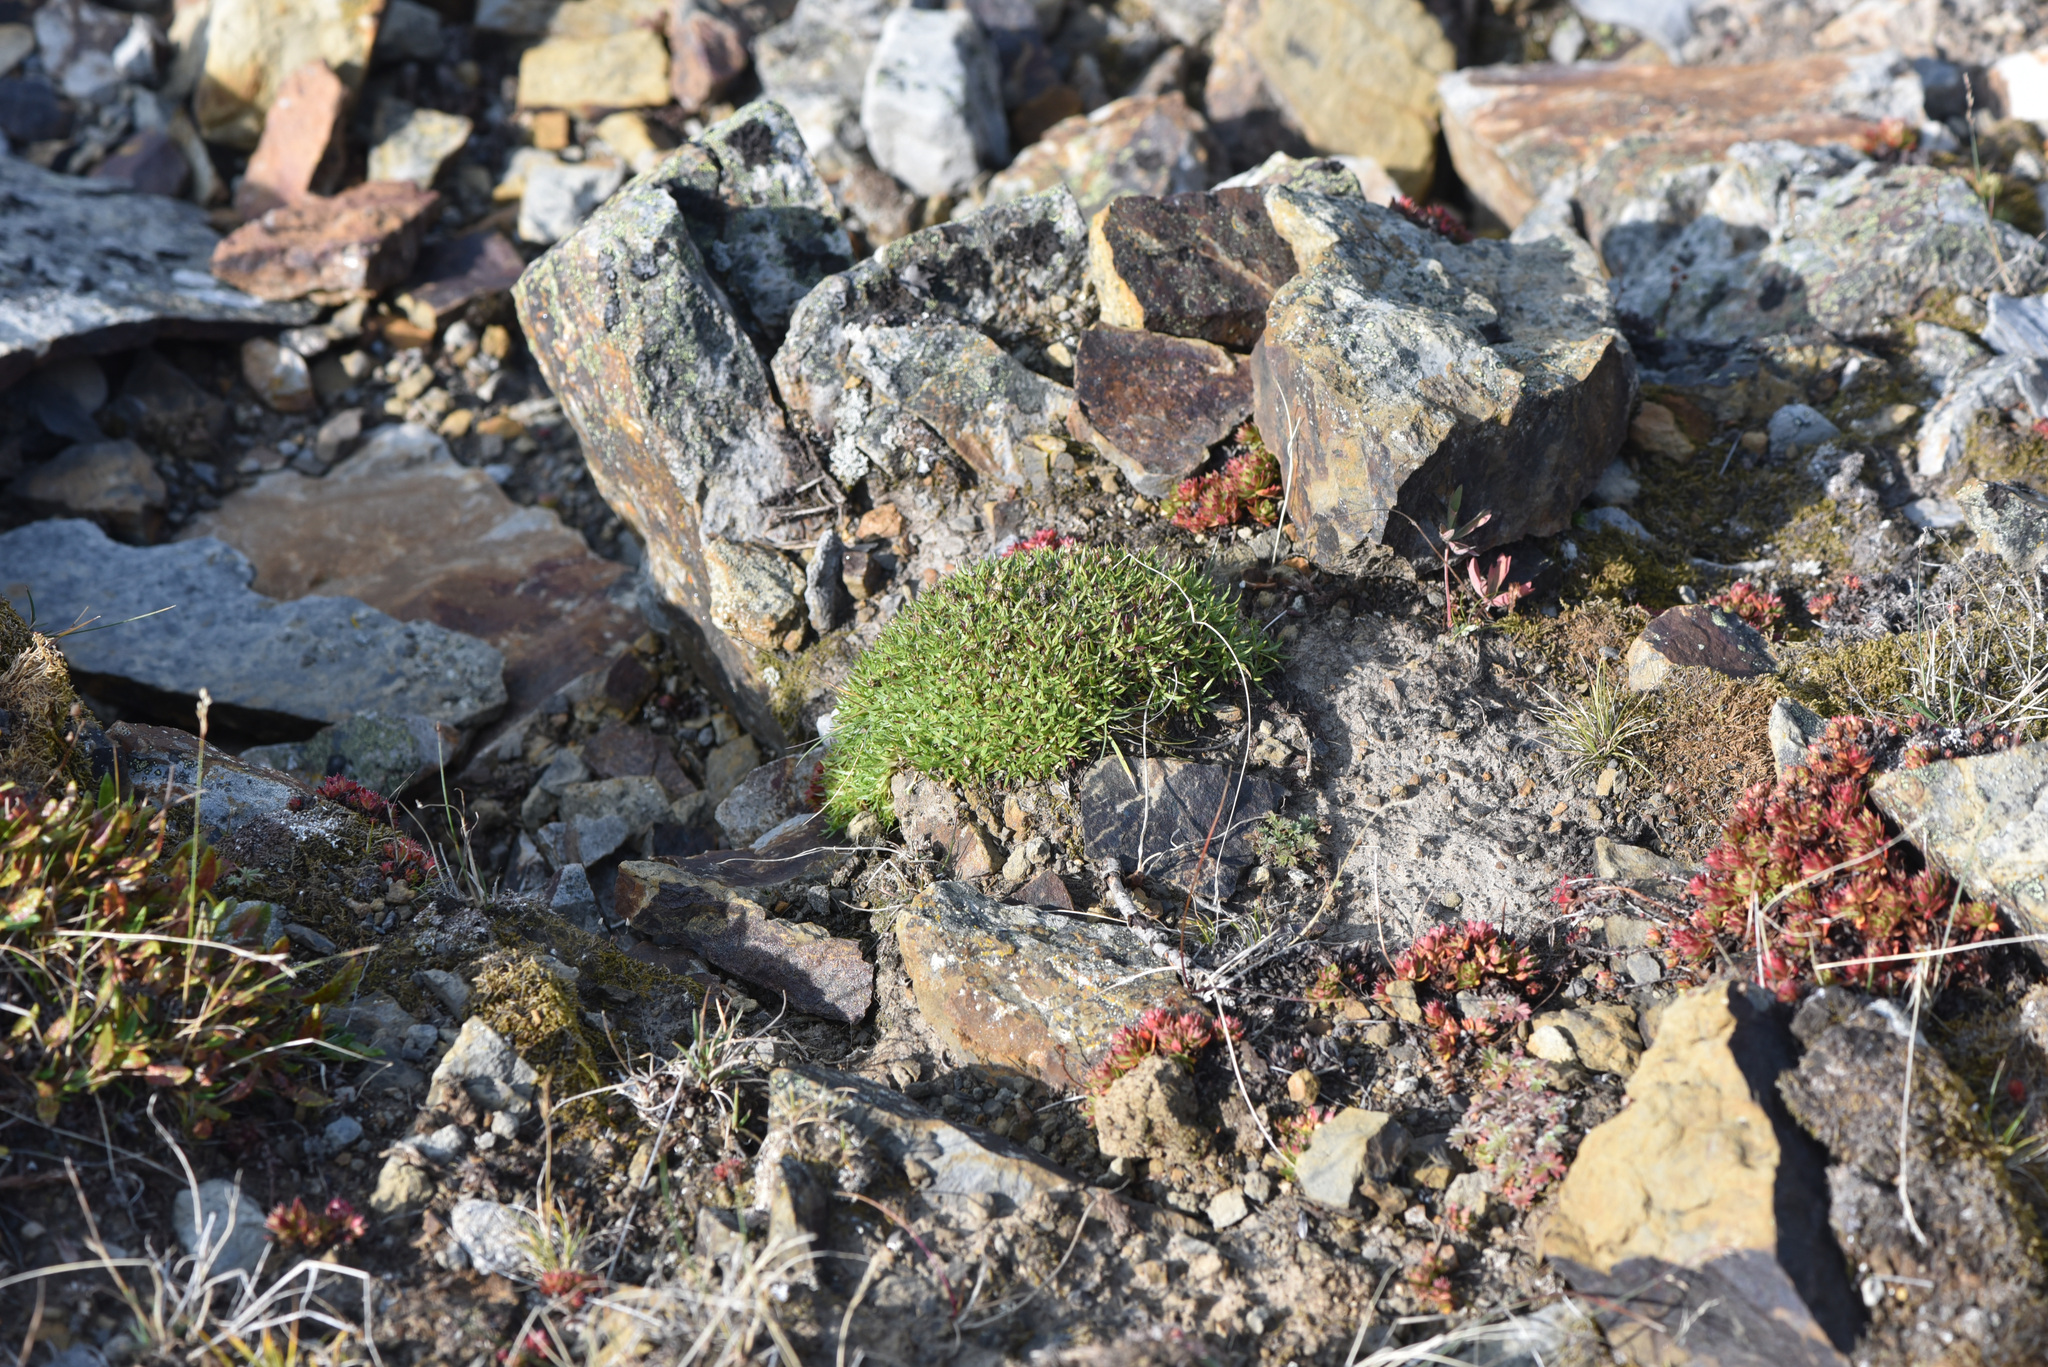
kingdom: Plantae
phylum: Tracheophyta
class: Magnoliopsida
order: Caryophyllales
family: Caryophyllaceae
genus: Silene
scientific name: Silene acaulis
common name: Moss campion
